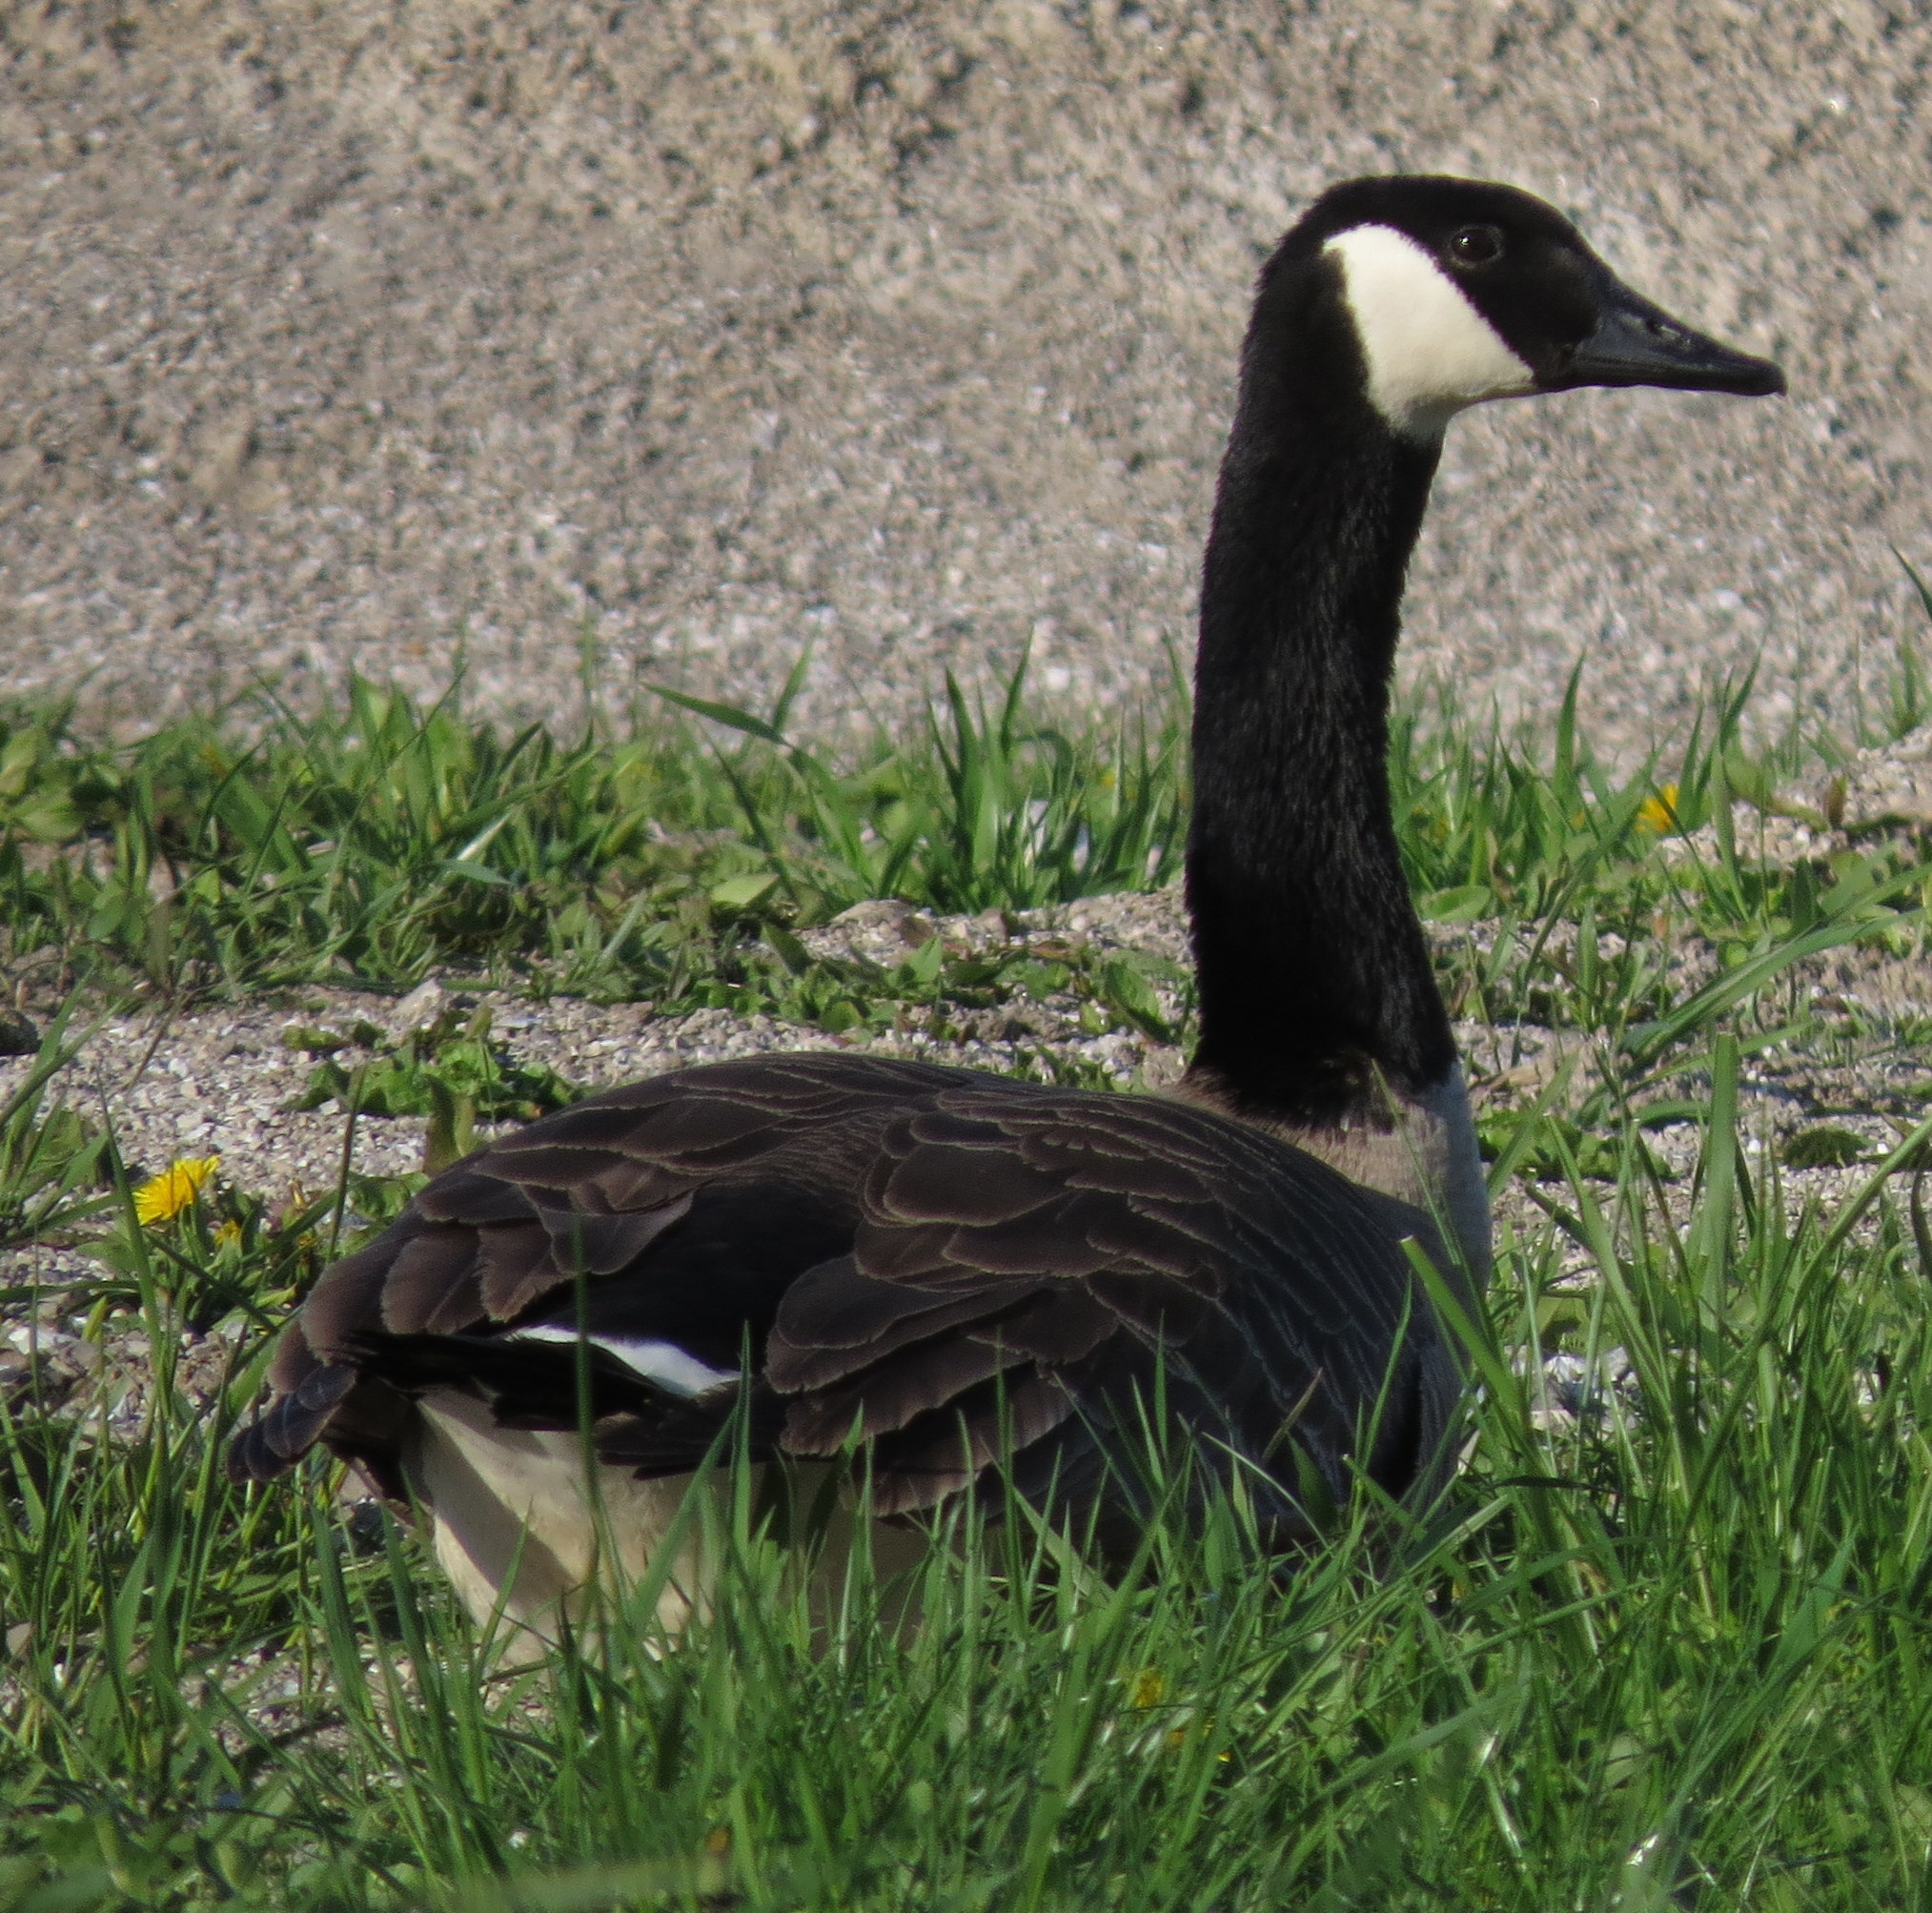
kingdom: Animalia
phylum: Chordata
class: Aves
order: Anseriformes
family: Anatidae
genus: Branta
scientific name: Branta canadensis
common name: Canada goose
